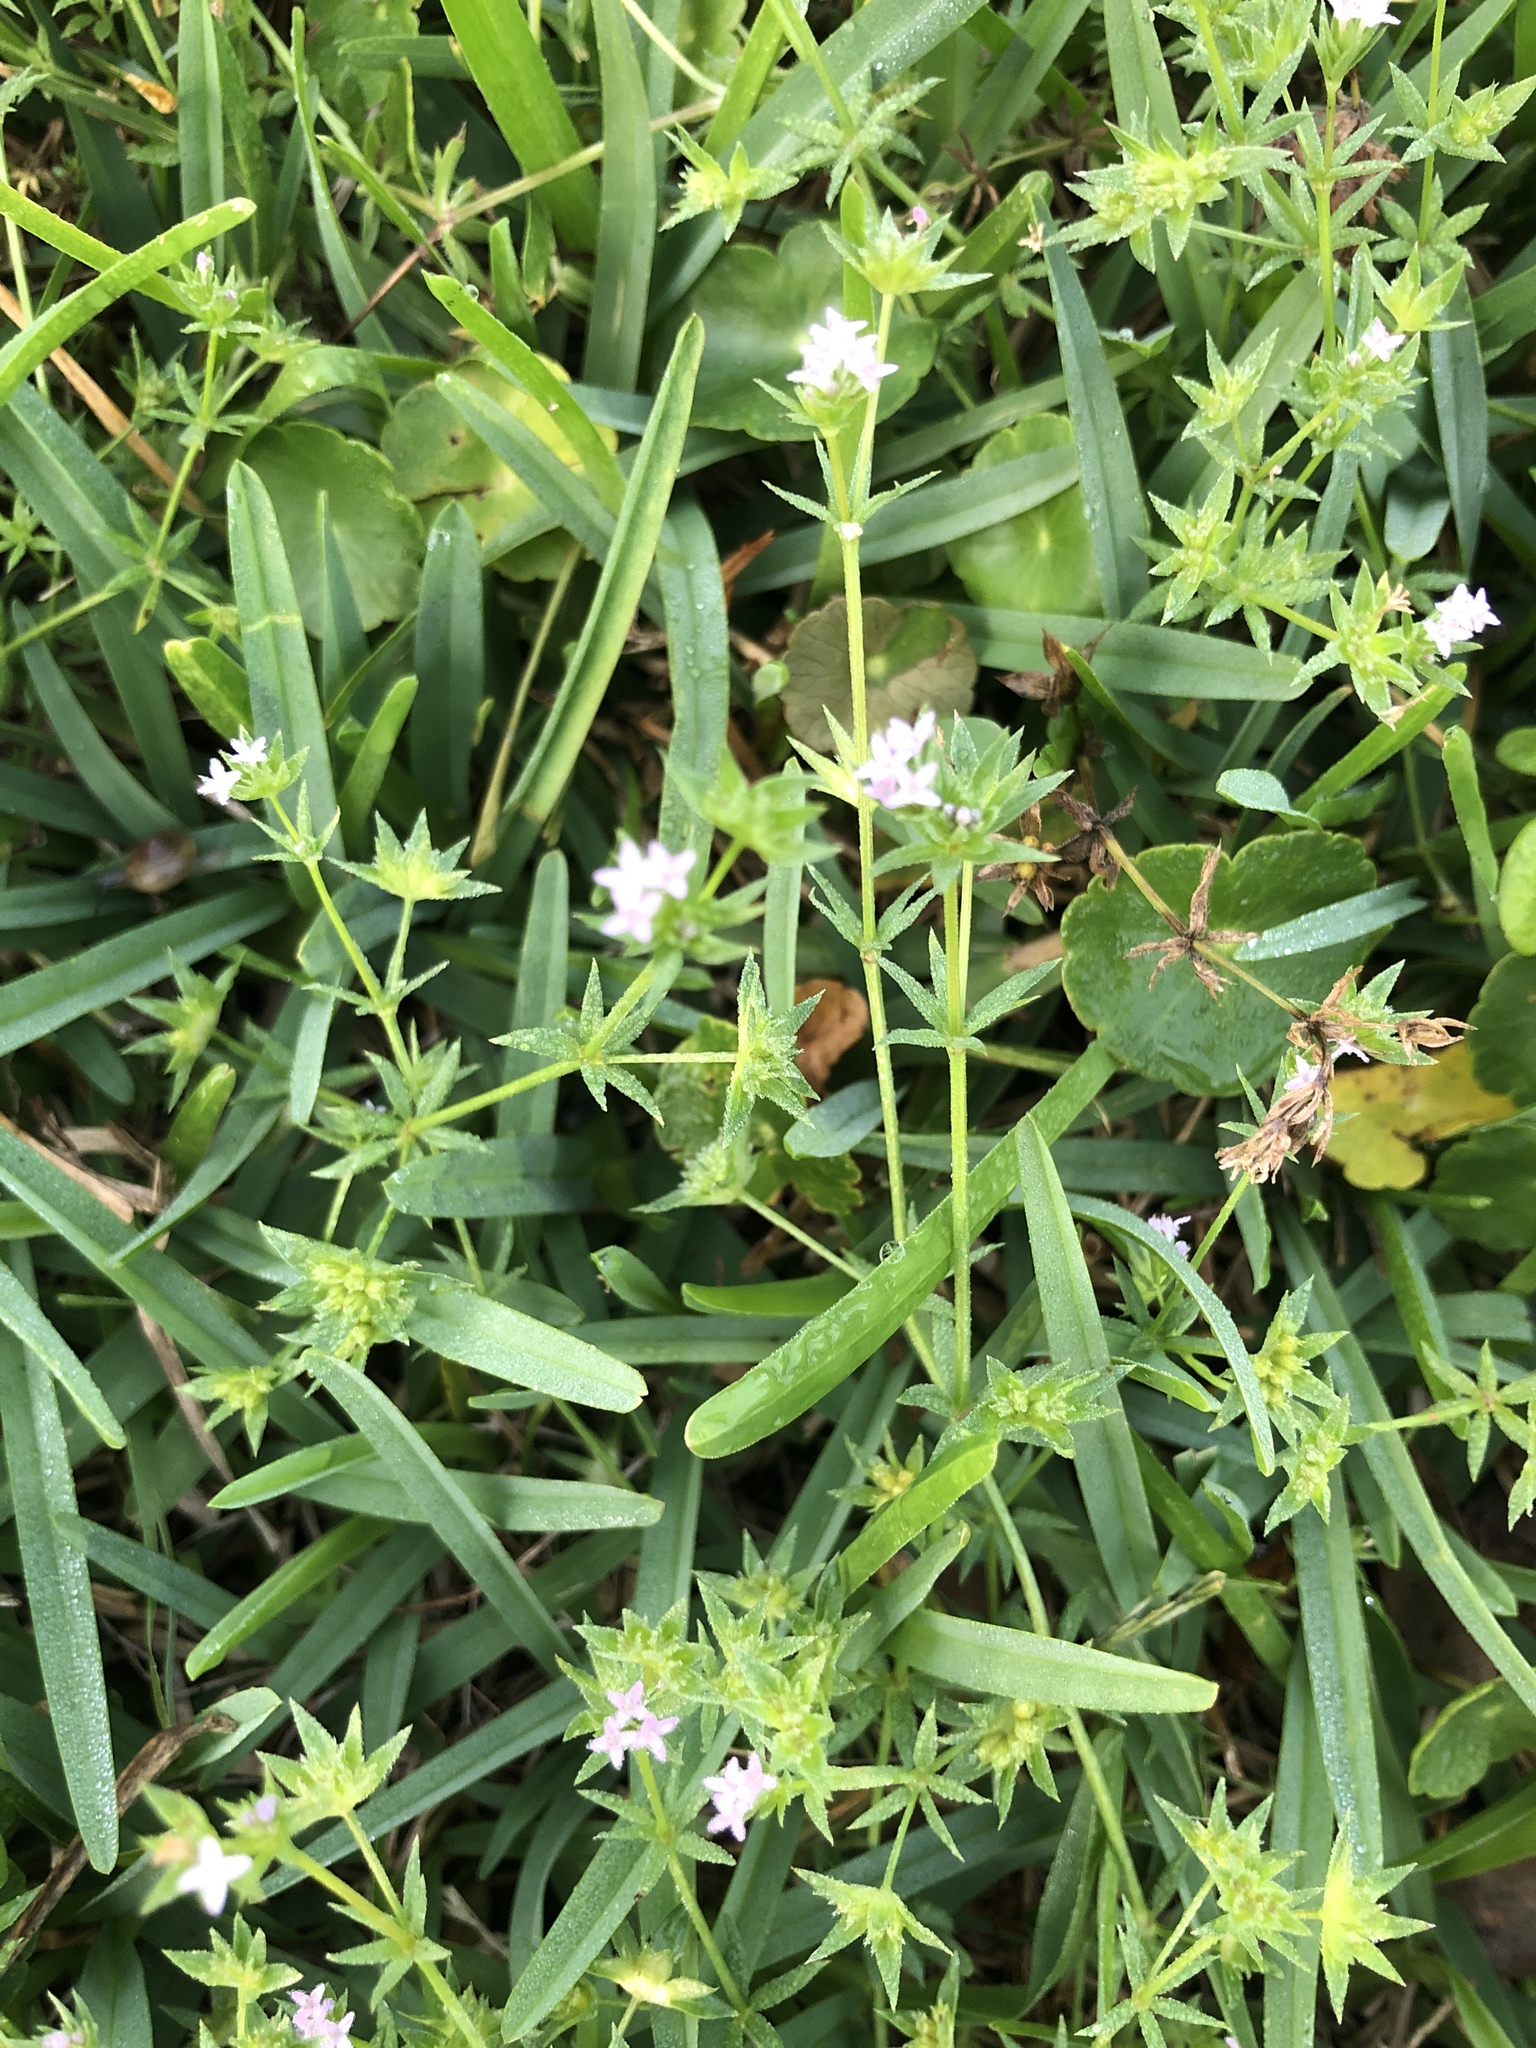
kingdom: Plantae
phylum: Tracheophyta
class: Magnoliopsida
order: Gentianales
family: Rubiaceae
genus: Sherardia
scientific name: Sherardia arvensis
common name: Field madder
